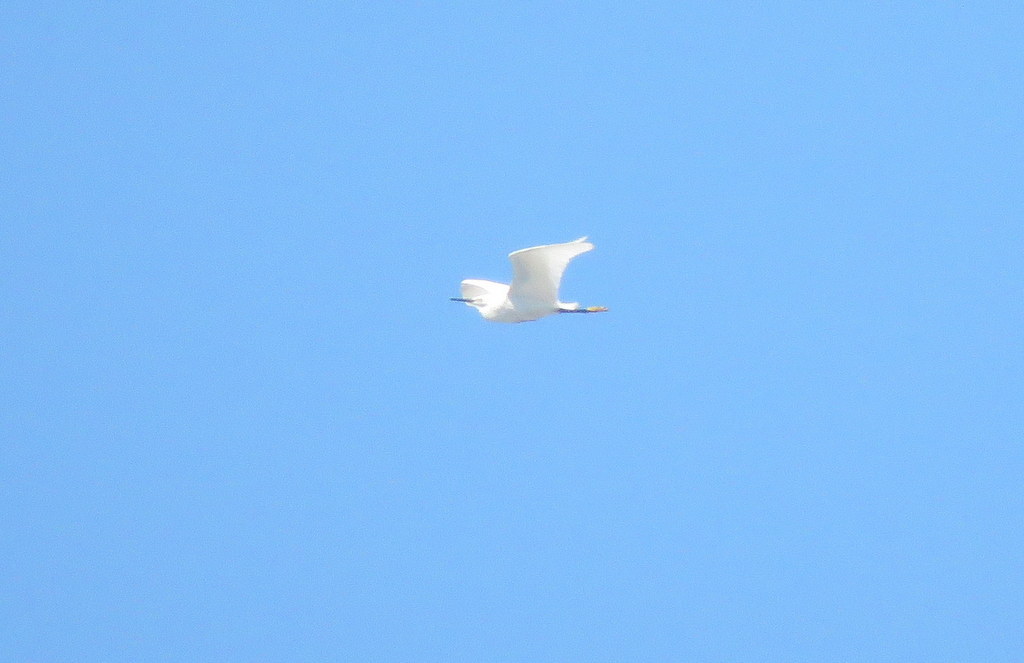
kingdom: Animalia
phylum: Chordata
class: Aves
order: Pelecaniformes
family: Ardeidae
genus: Egretta
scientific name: Egretta thula
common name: Snowy egret
